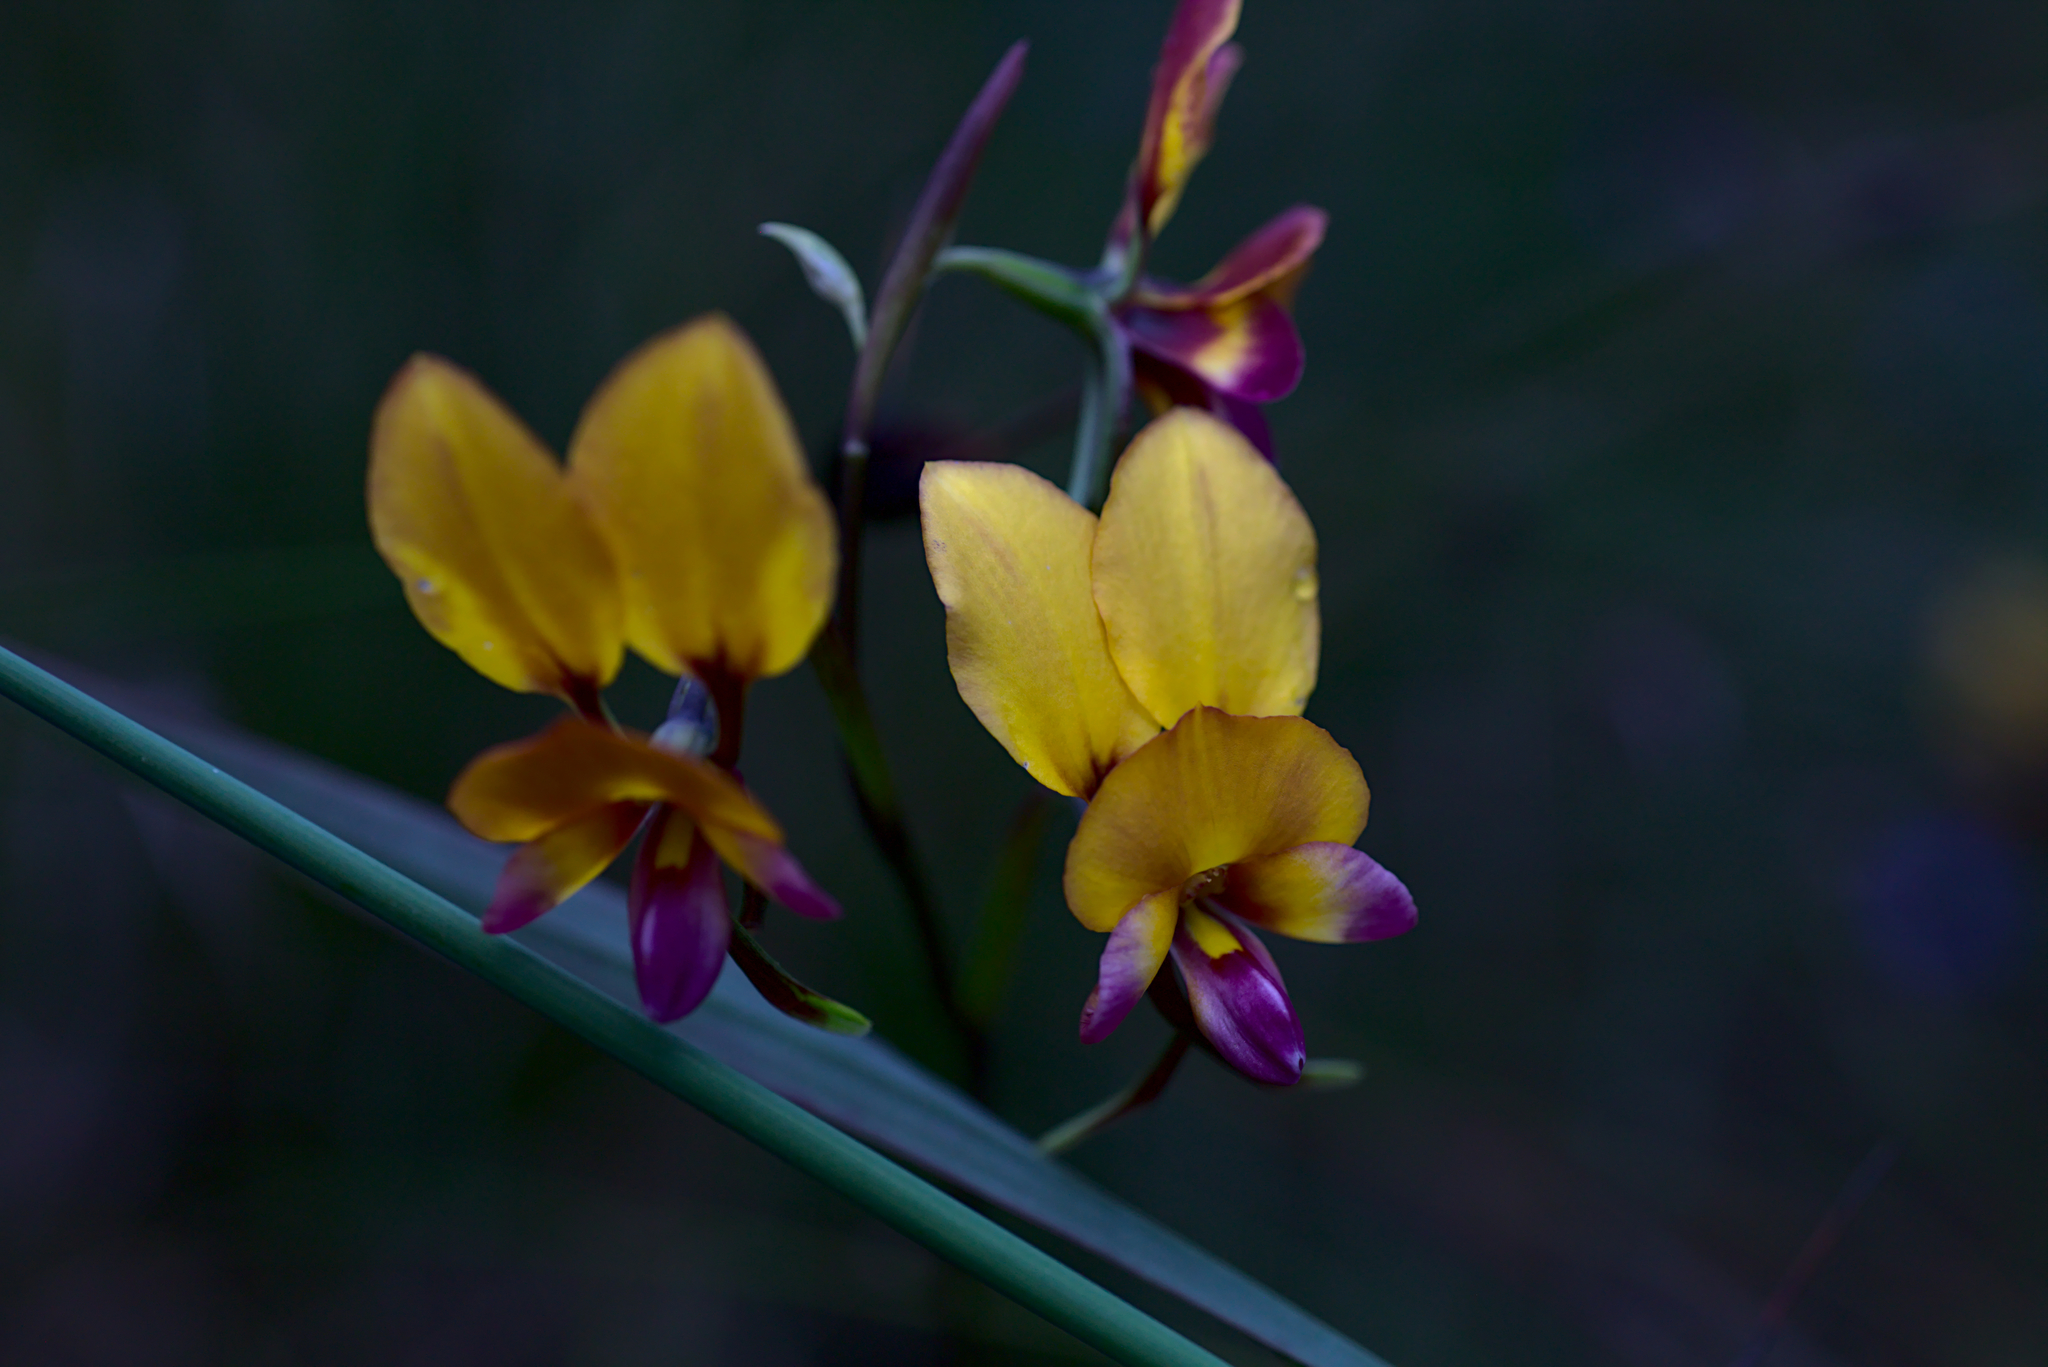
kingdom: Plantae
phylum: Tracheophyta
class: Liliopsida
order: Asparagales
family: Orchidaceae
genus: Diuris
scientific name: Diuris magnifica
